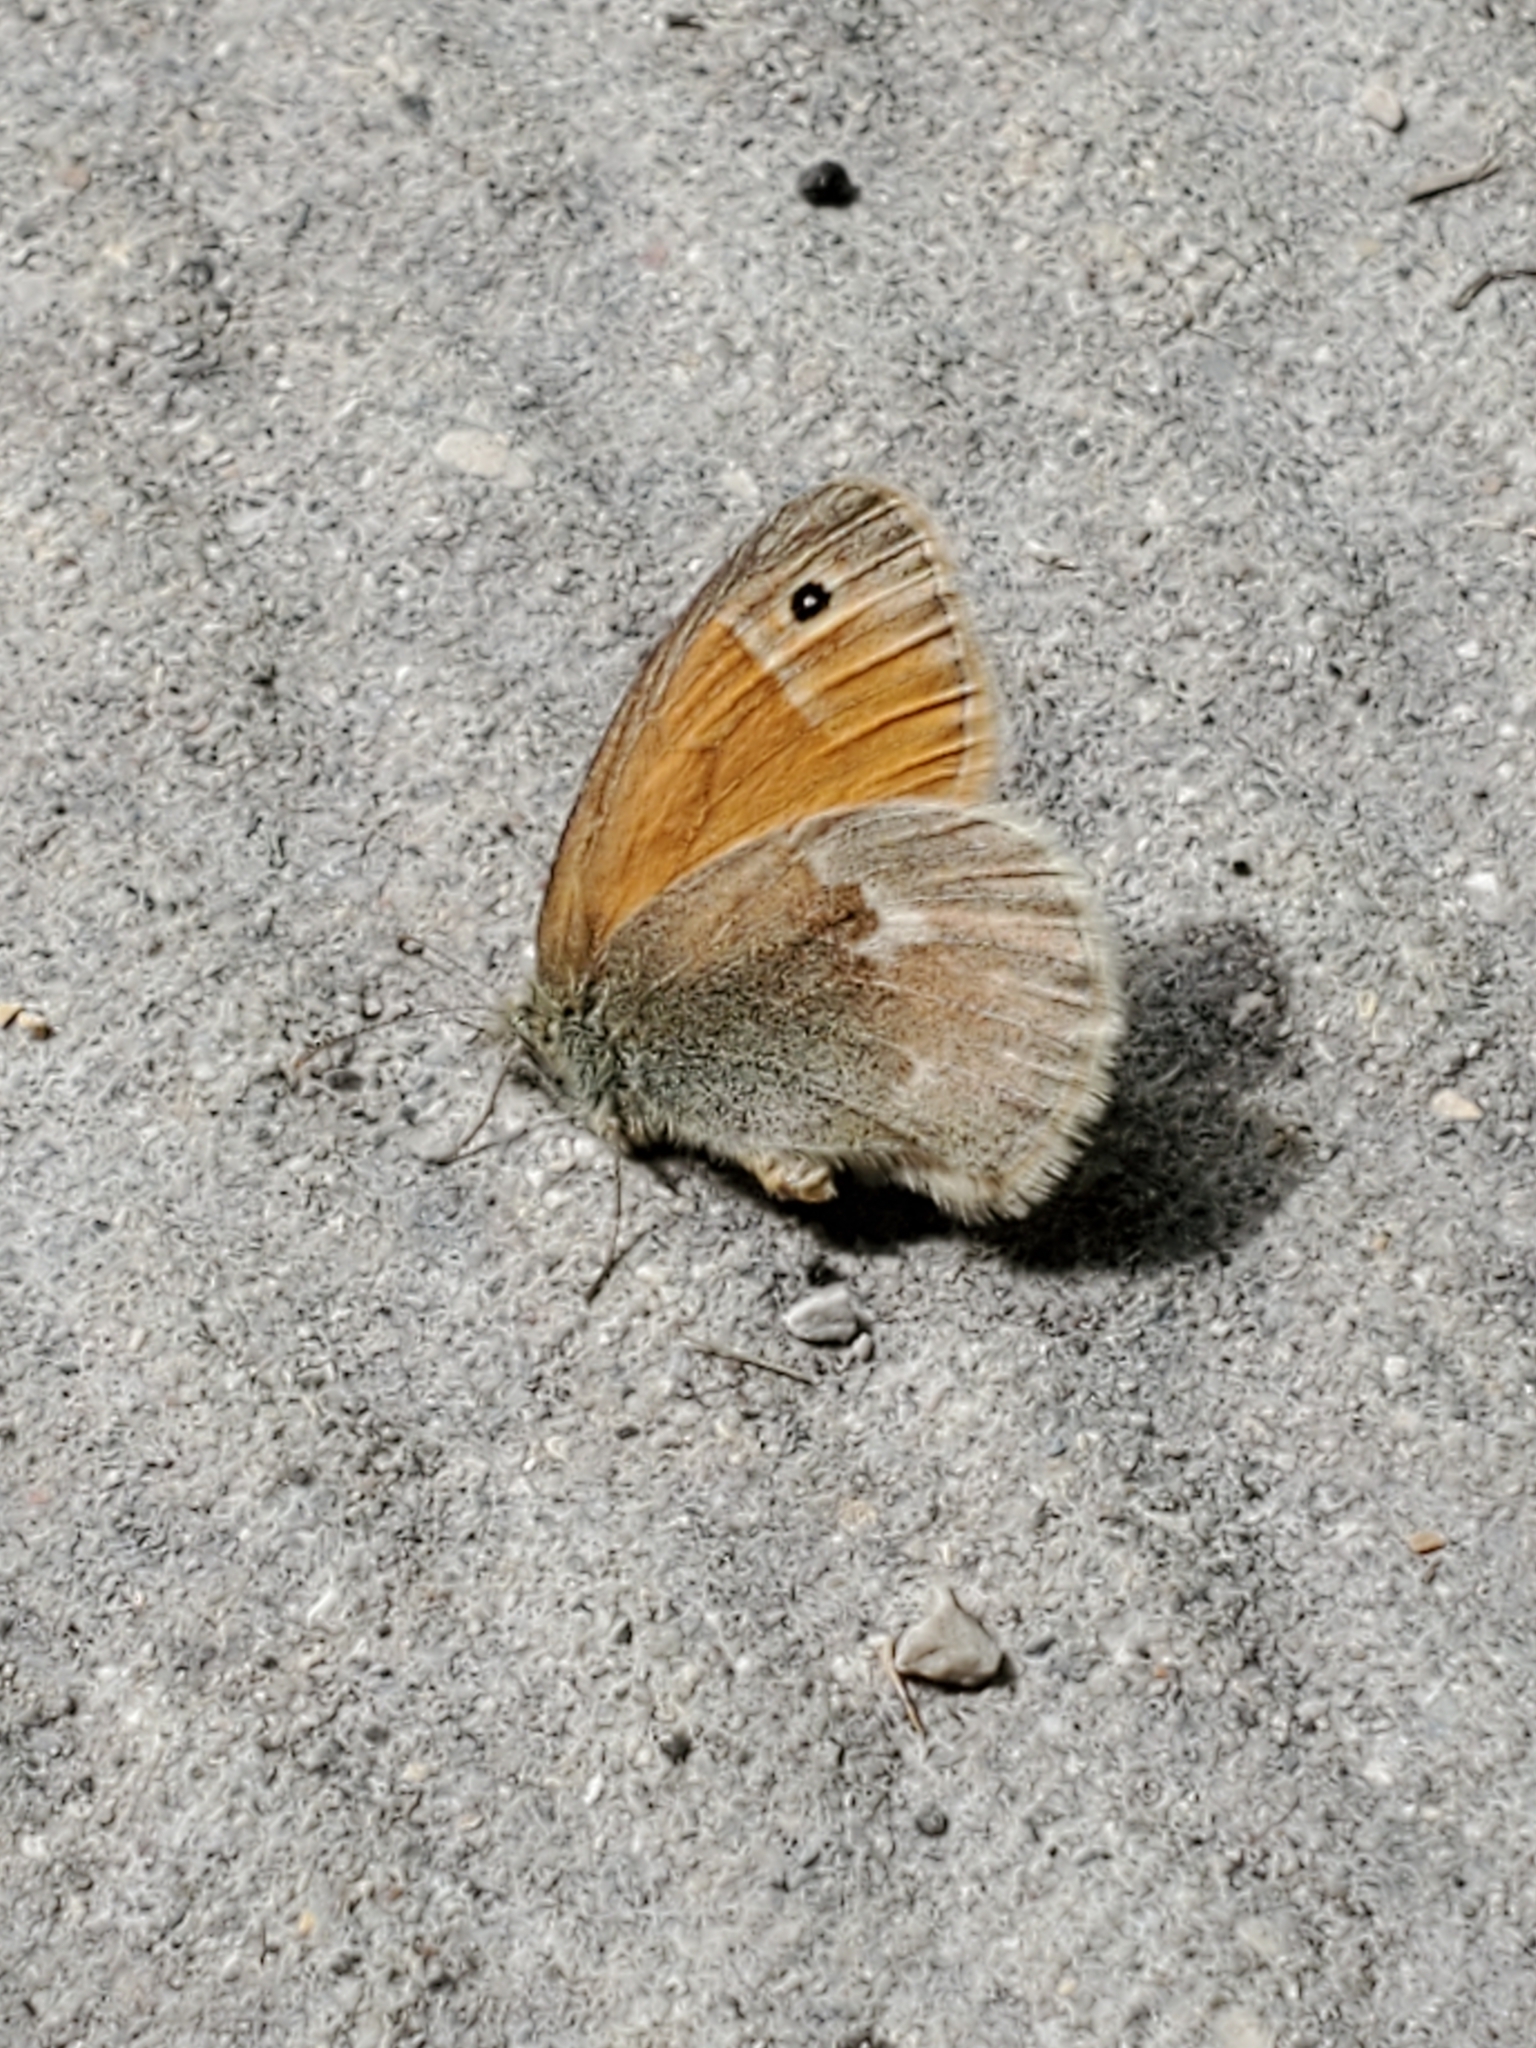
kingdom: Animalia
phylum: Arthropoda
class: Insecta
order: Lepidoptera
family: Nymphalidae
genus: Coenonympha
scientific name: Coenonympha california
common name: Common ringlet
